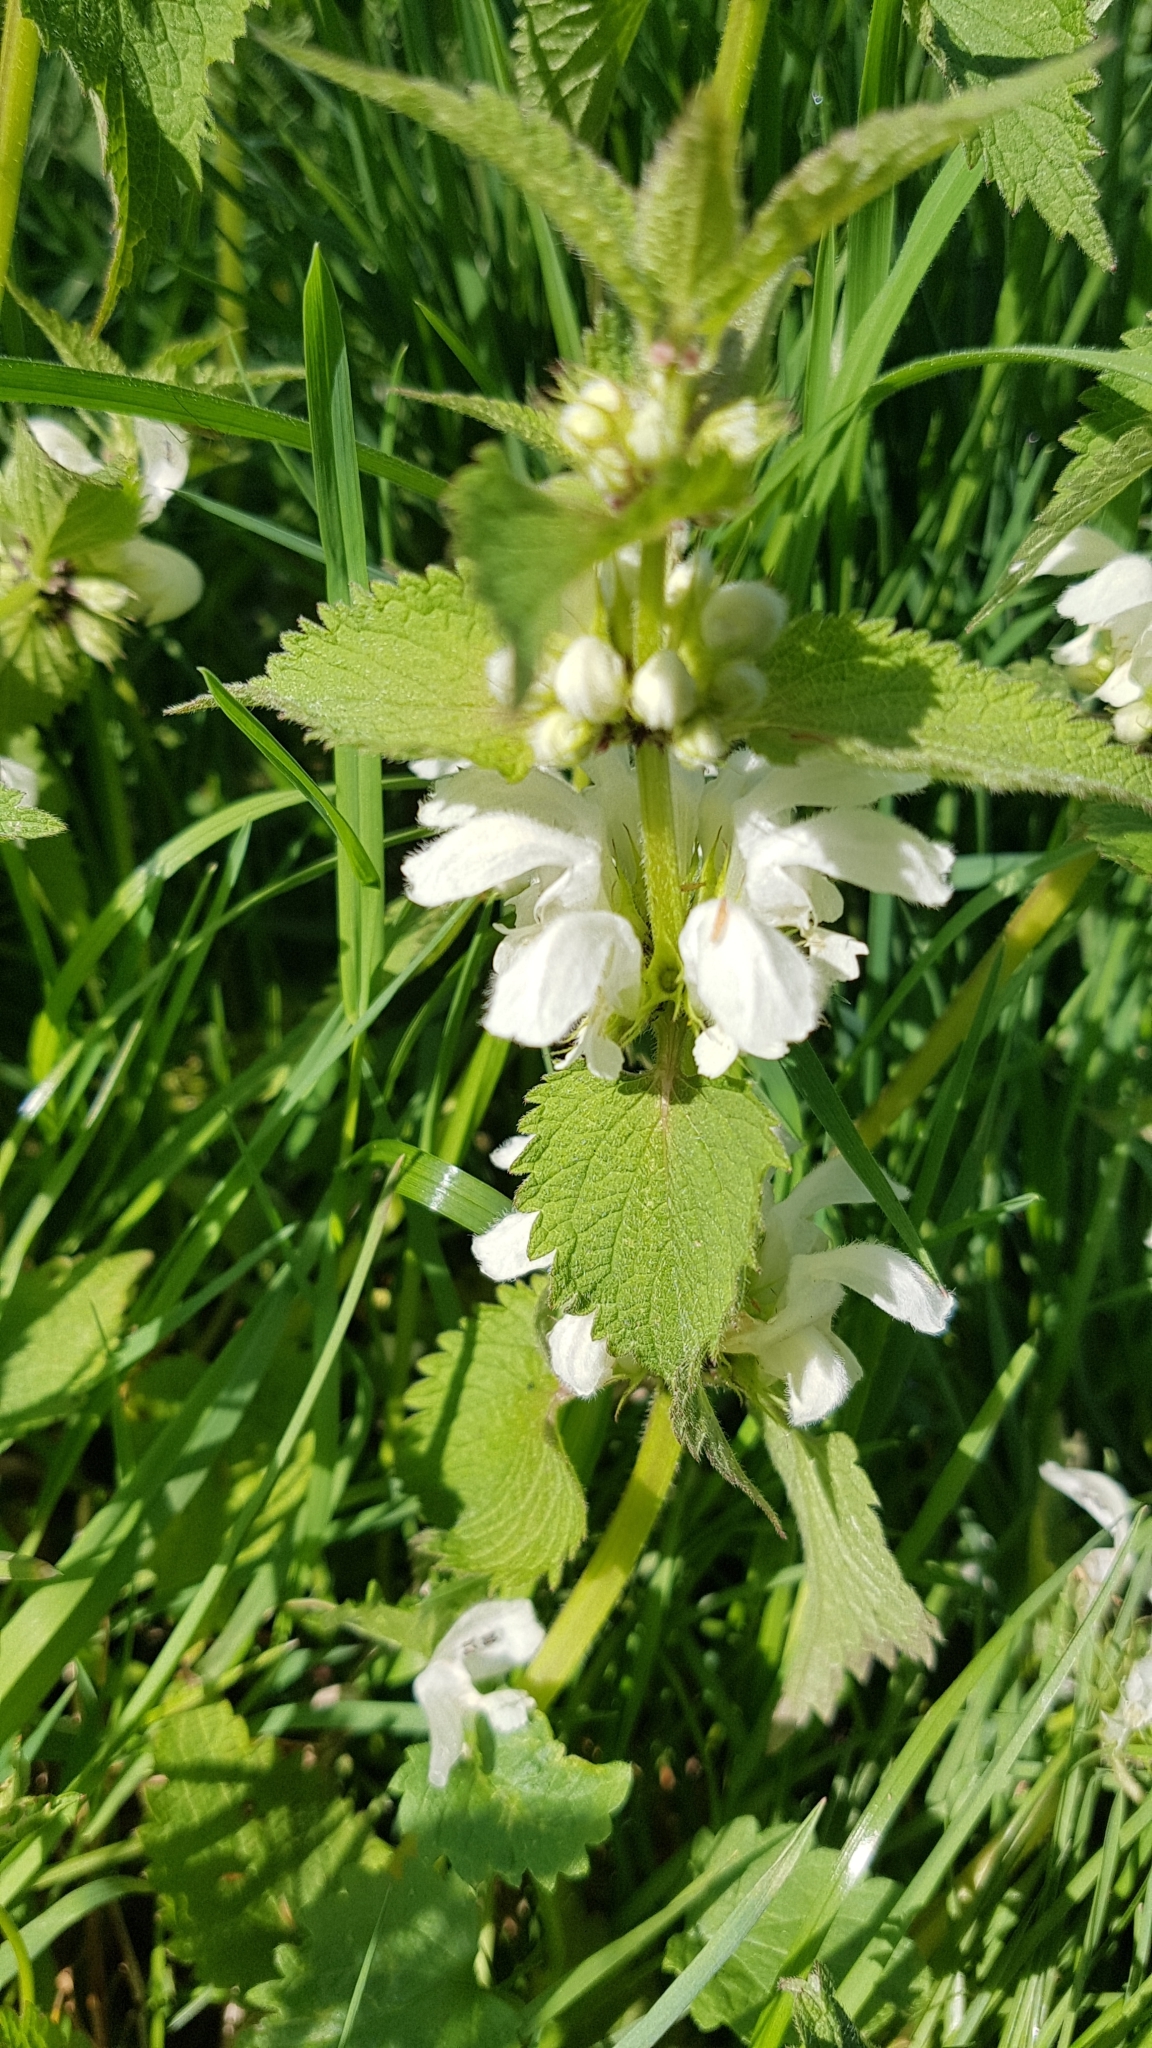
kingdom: Plantae
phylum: Tracheophyta
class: Magnoliopsida
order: Lamiales
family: Lamiaceae
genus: Lamium
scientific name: Lamium album
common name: White dead-nettle
